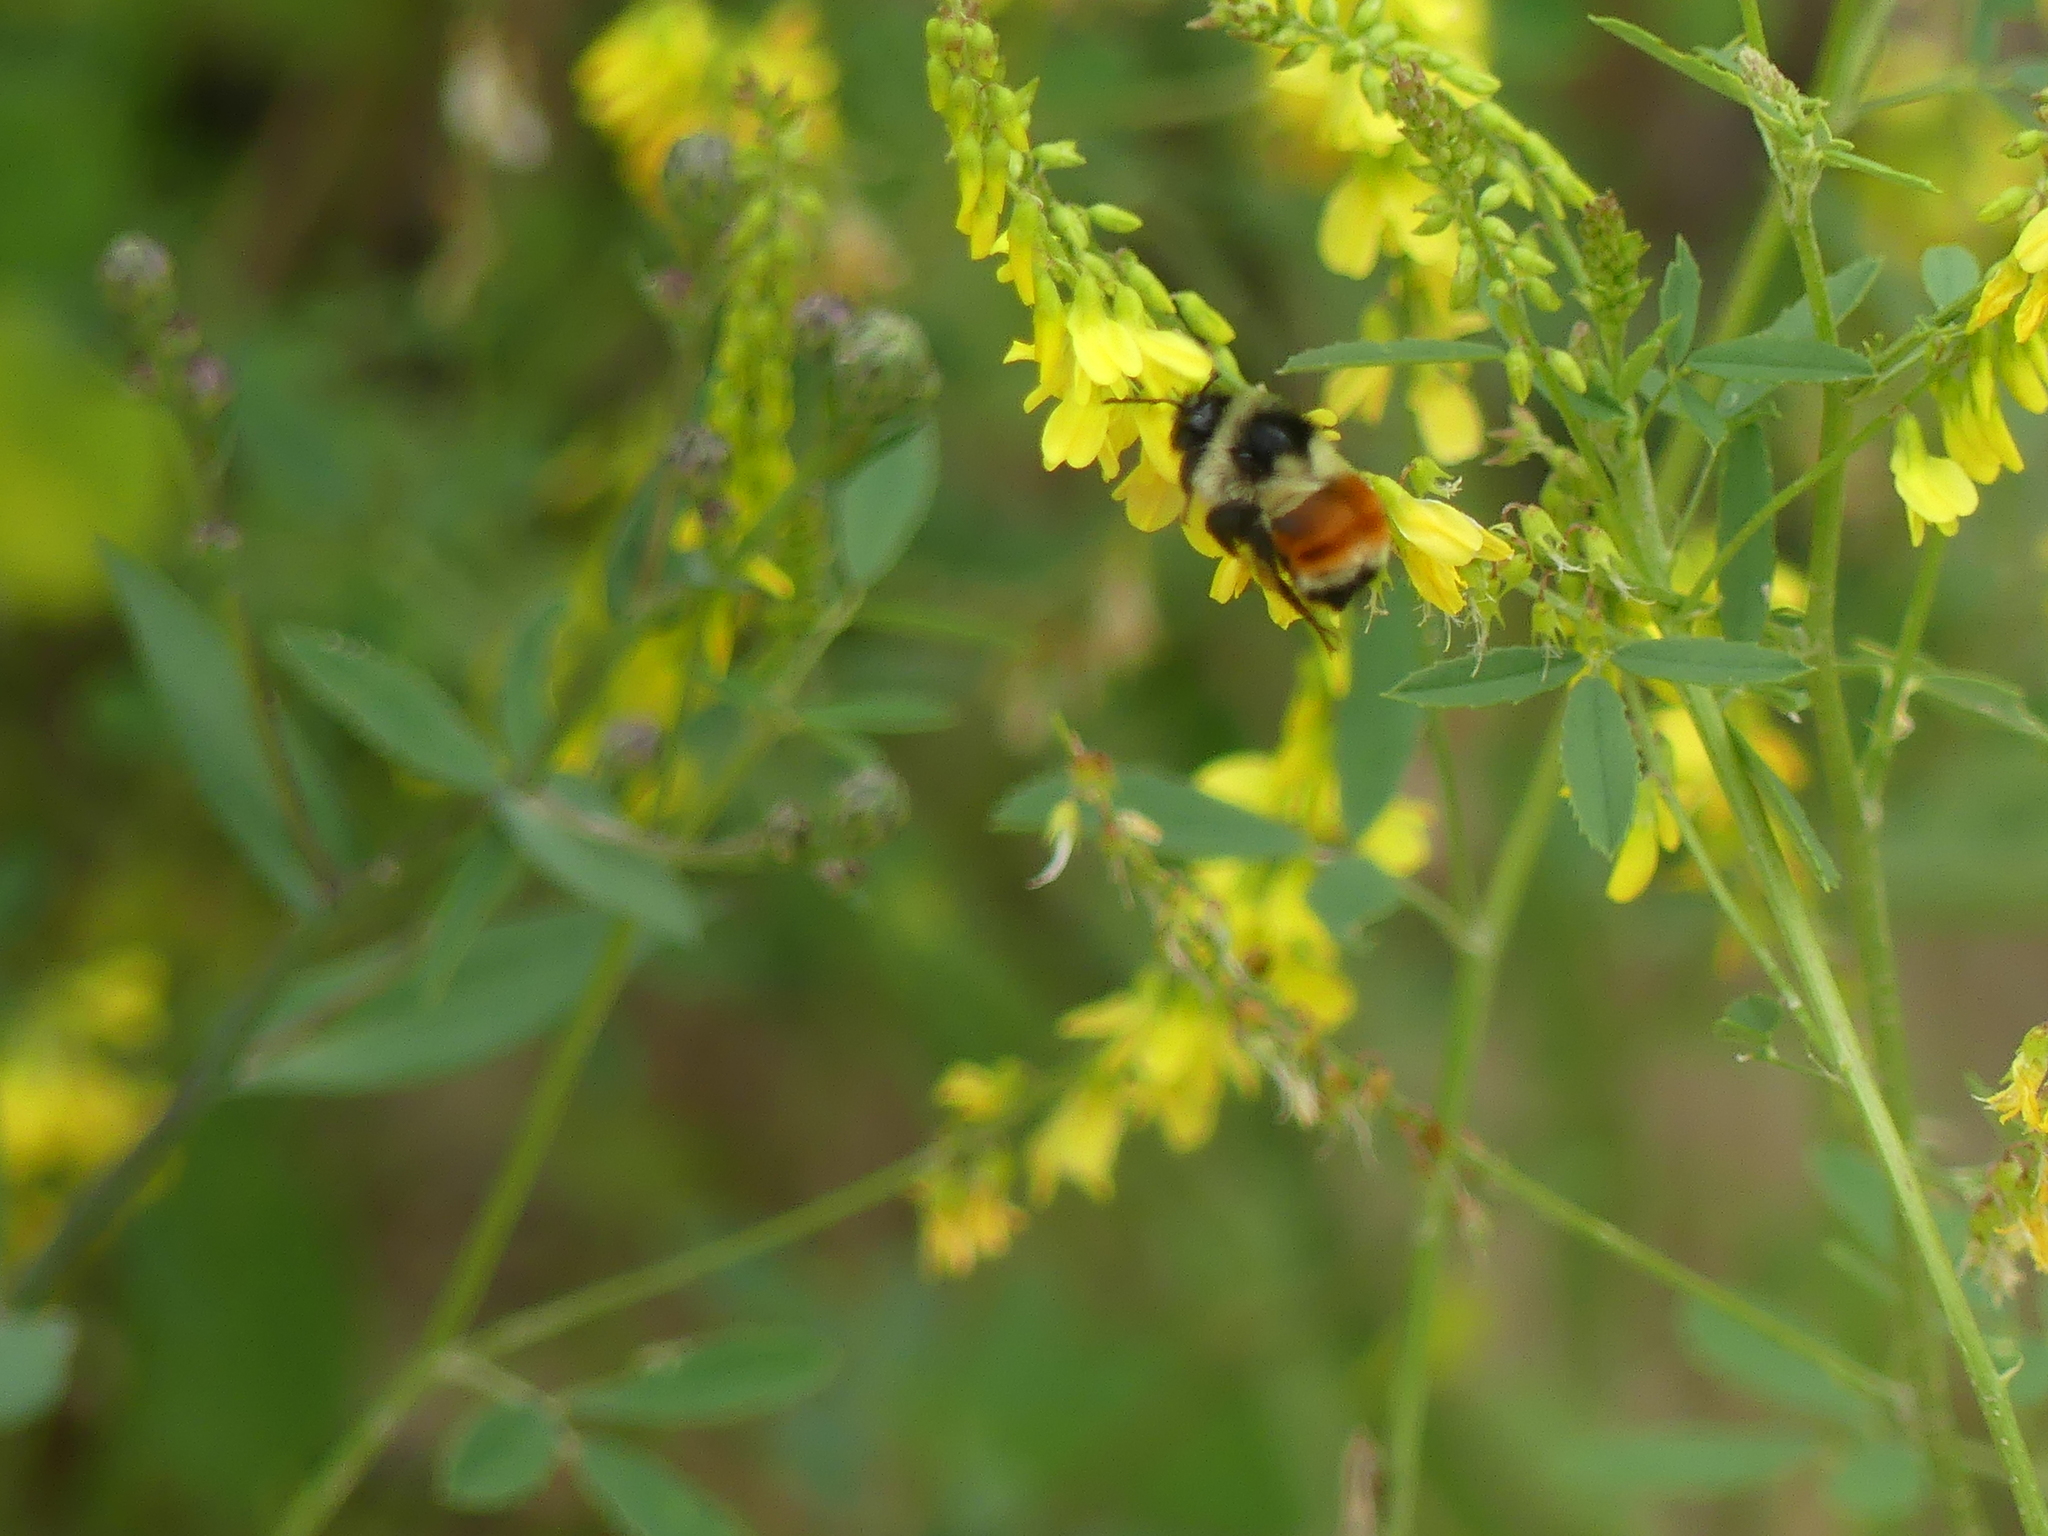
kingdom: Animalia
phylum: Arthropoda
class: Insecta
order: Hymenoptera
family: Apidae
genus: Bombus
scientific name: Bombus ternarius
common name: Tri-colored bumble bee
